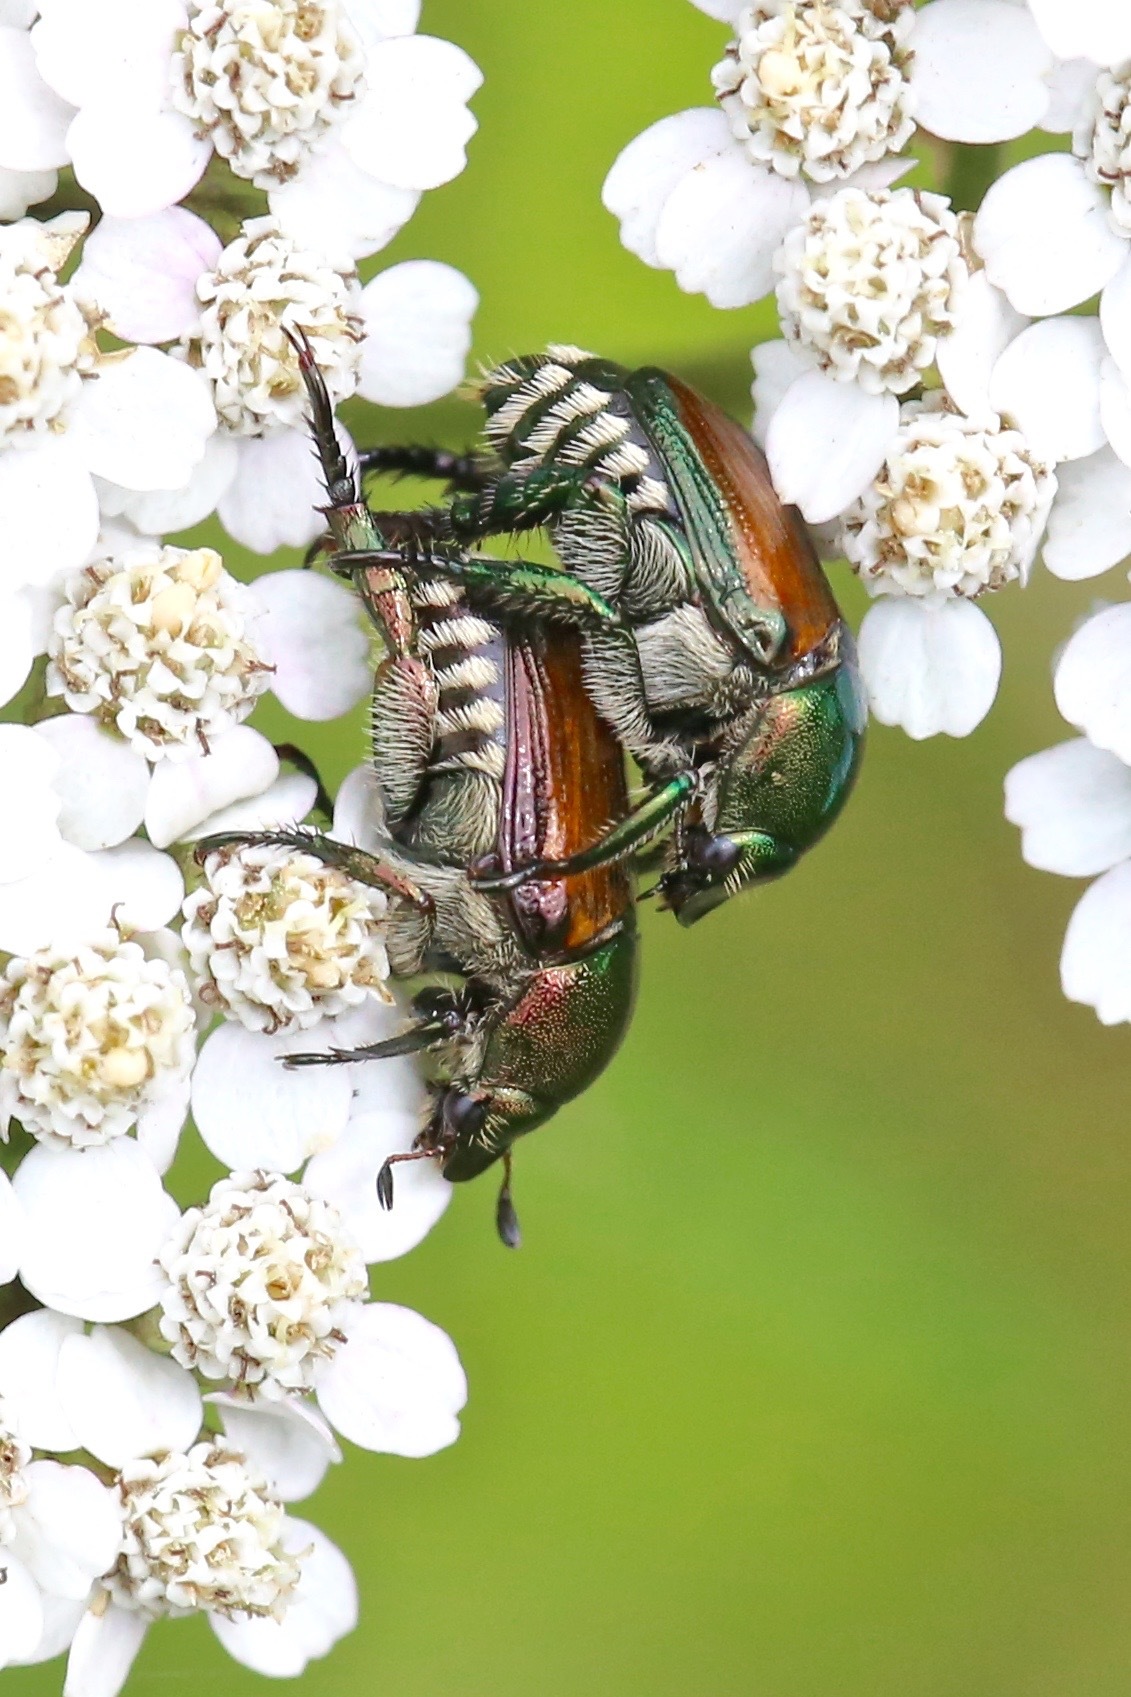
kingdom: Animalia
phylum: Arthropoda
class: Insecta
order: Coleoptera
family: Scarabaeidae
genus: Popillia
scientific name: Popillia japonica
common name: Japanese beetle
